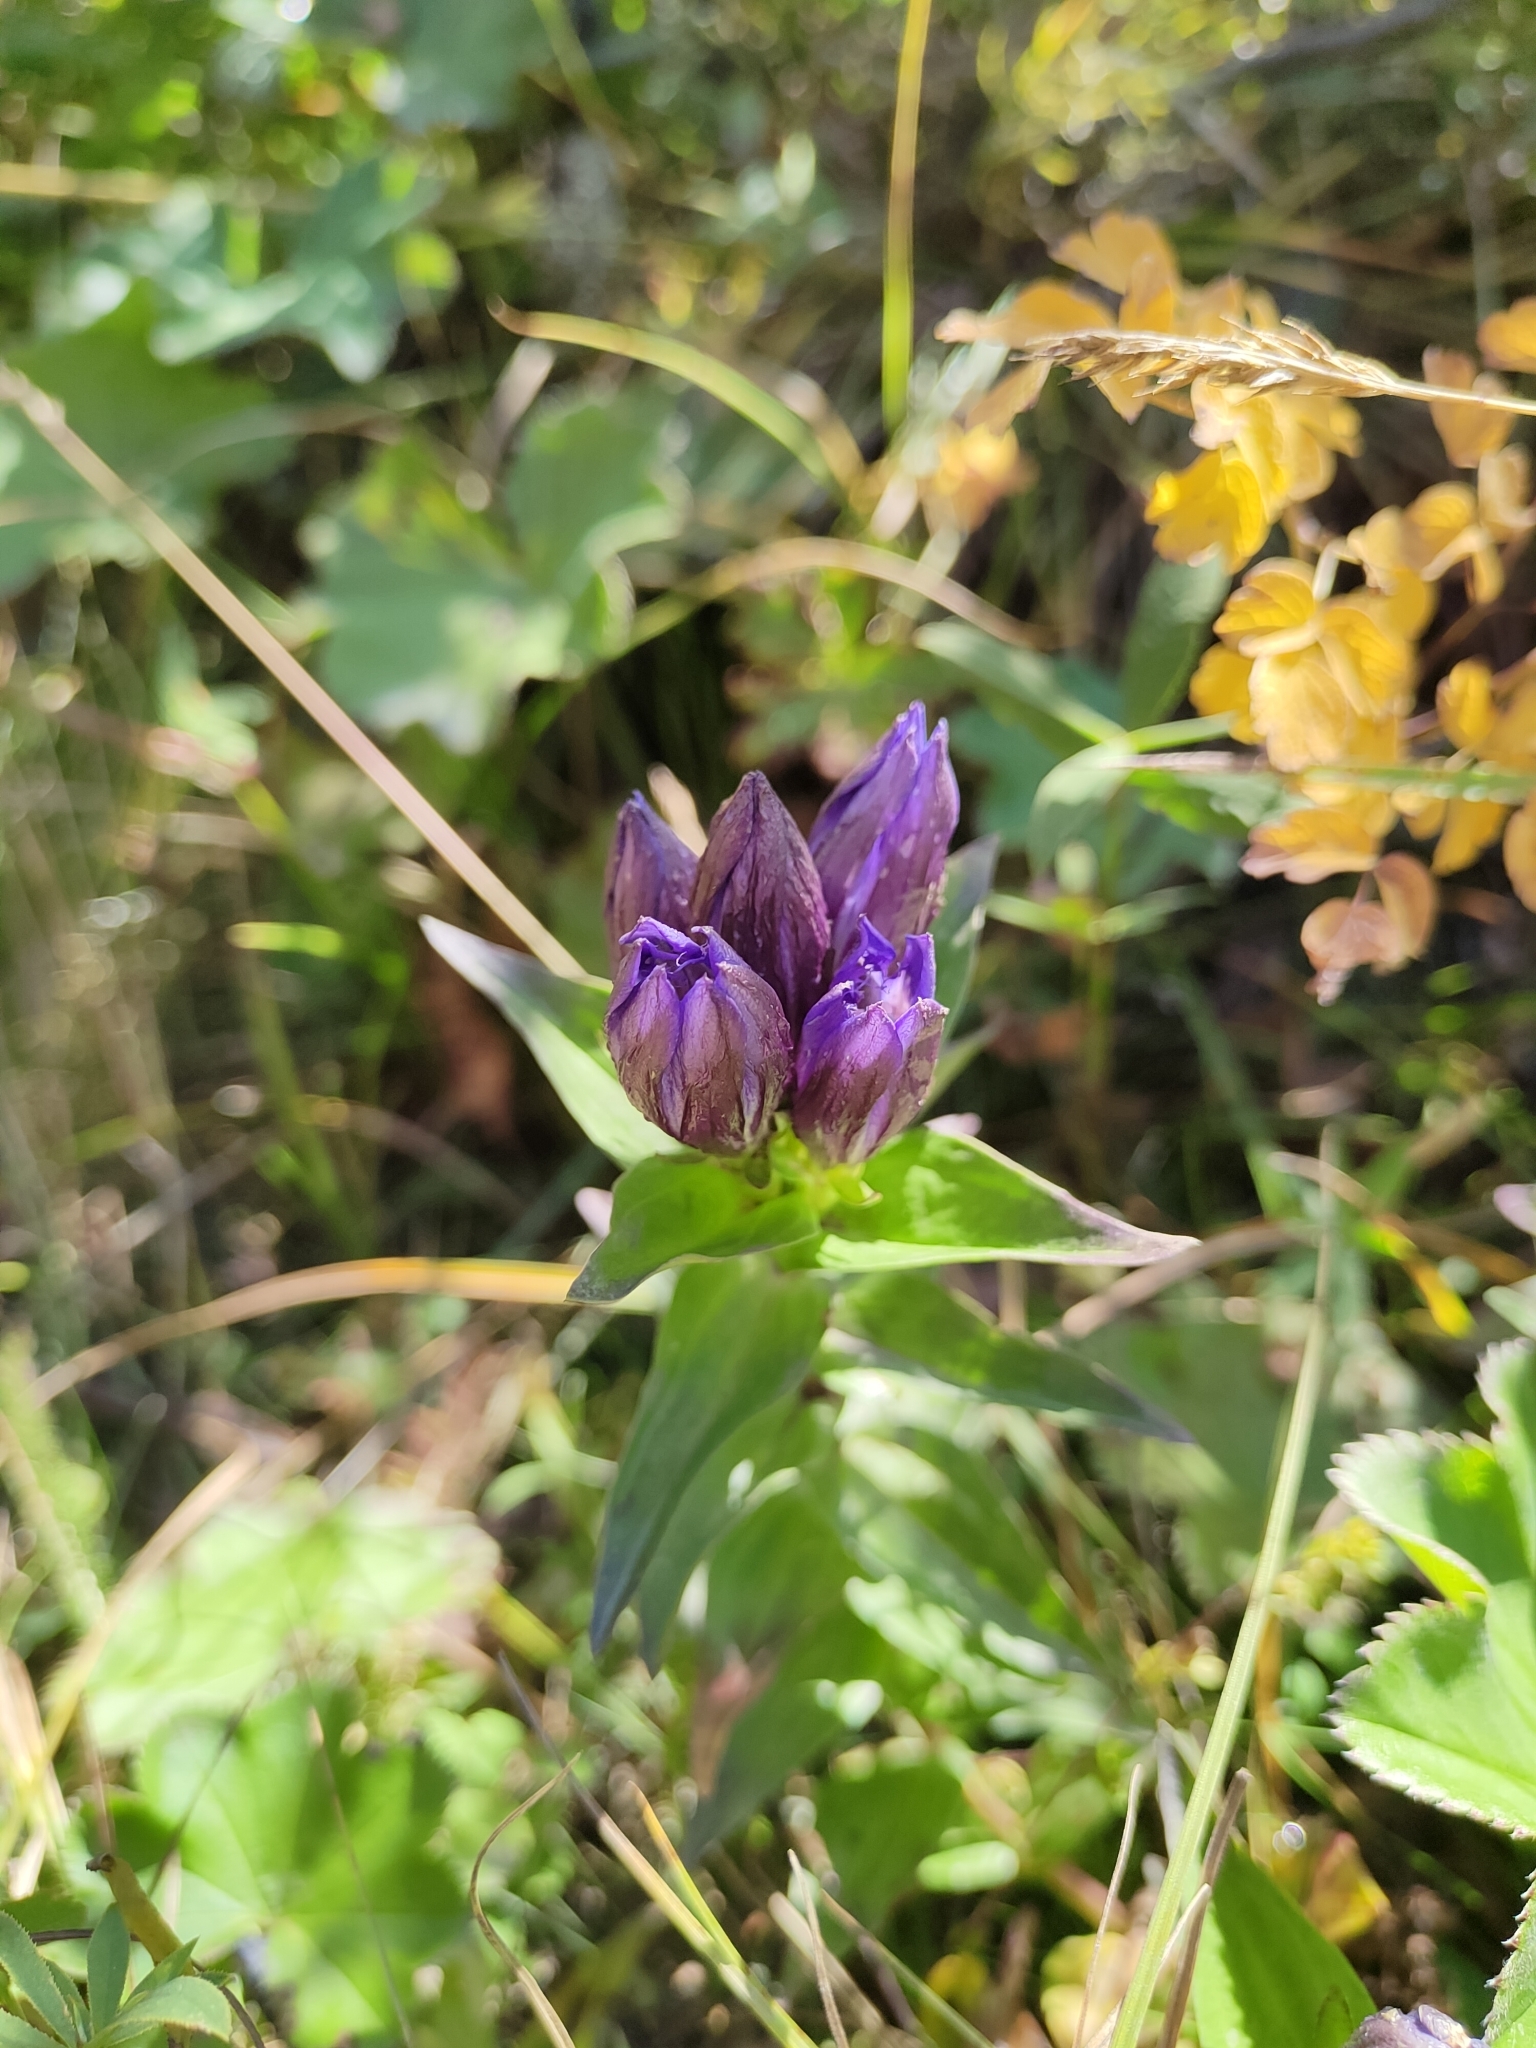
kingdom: Plantae
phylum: Tracheophyta
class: Magnoliopsida
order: Gentianales
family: Gentianaceae
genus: Gentiana
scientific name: Gentiana dschungarica
